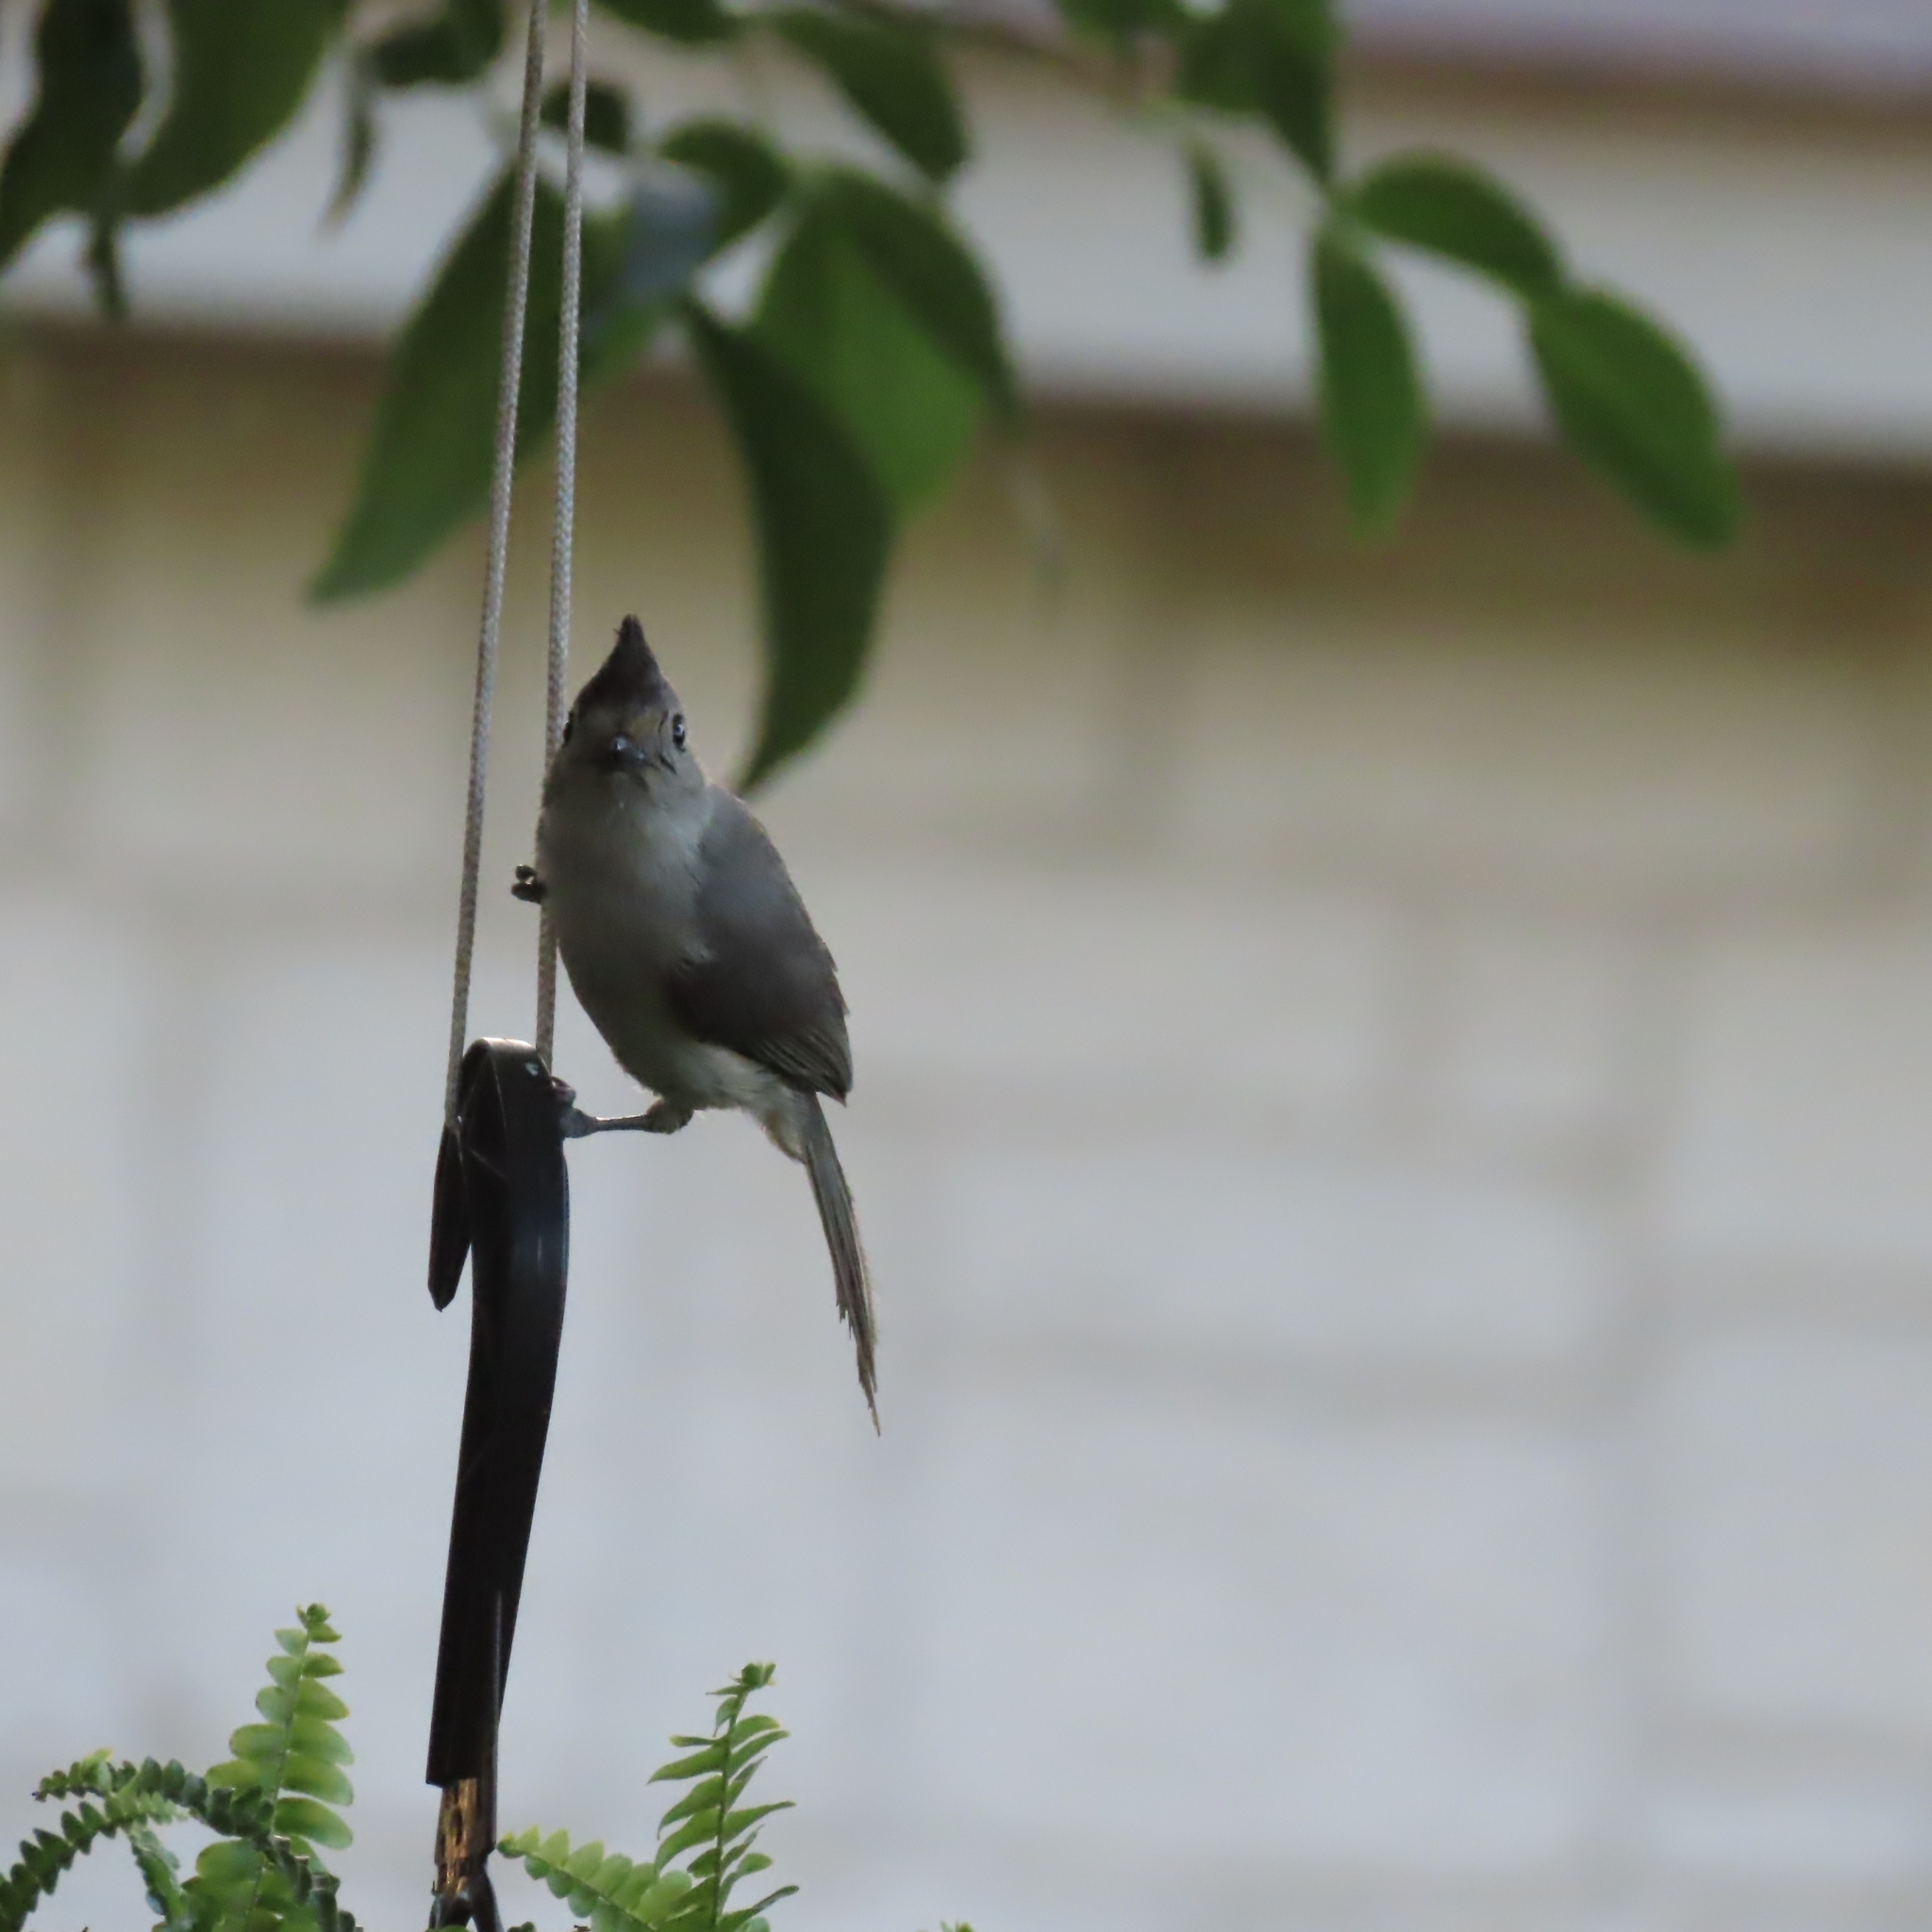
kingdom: Animalia
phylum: Chordata
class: Aves
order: Passeriformes
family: Paridae
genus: Baeolophus
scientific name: Baeolophus atricristatus
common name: Black-crested titmouse
